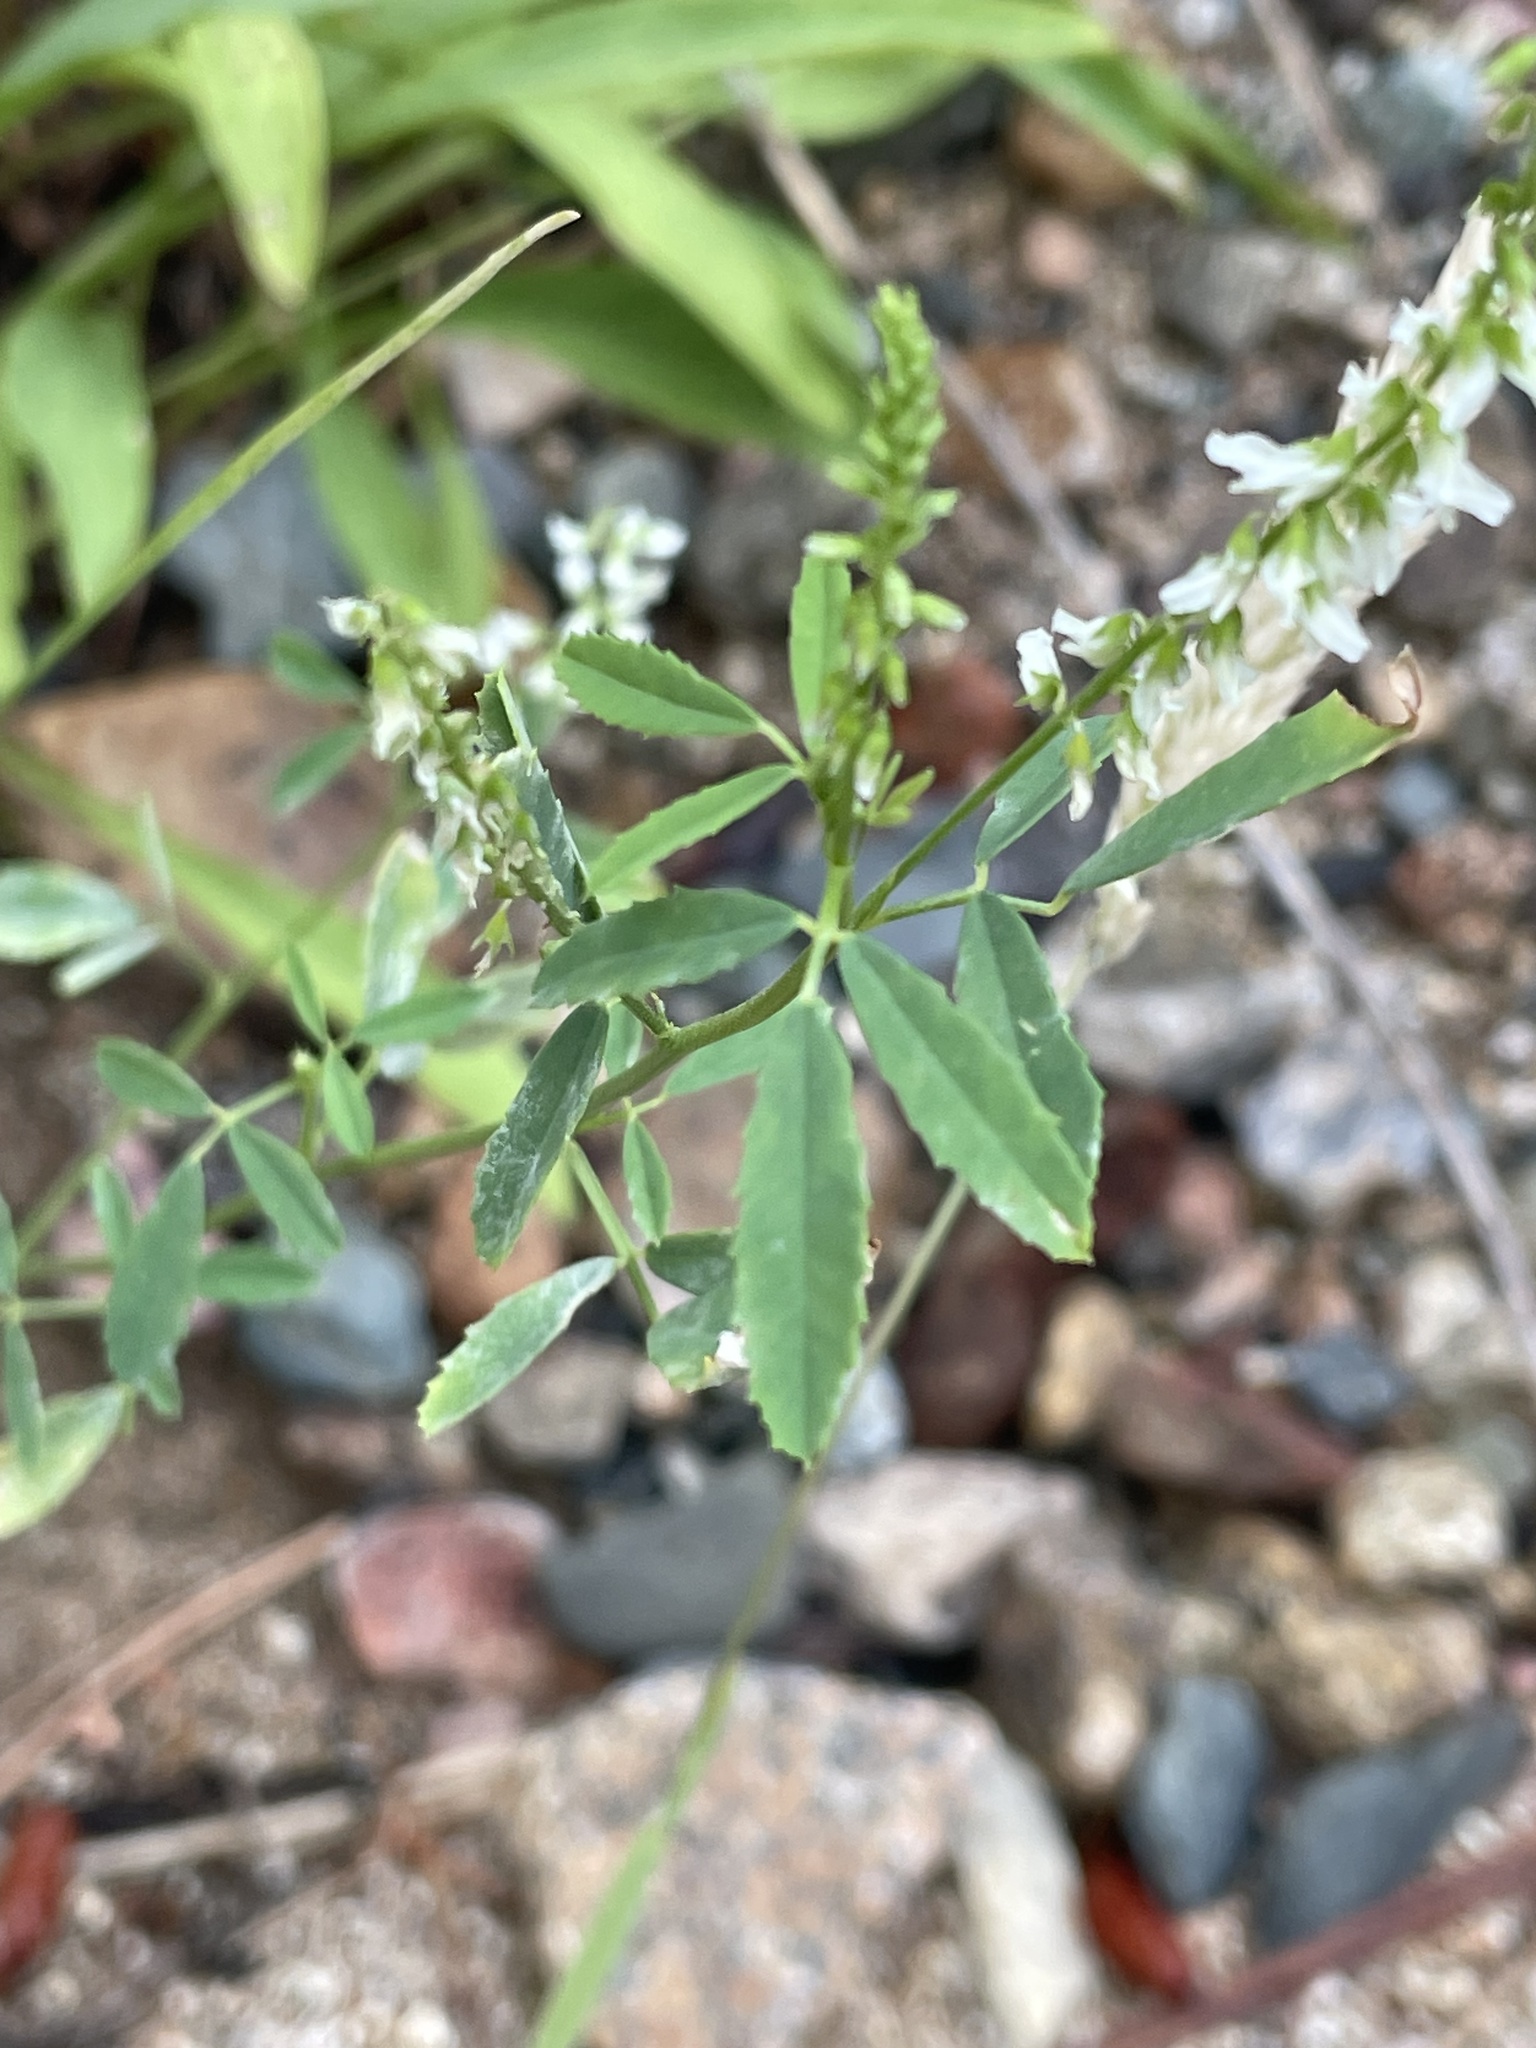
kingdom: Plantae
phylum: Tracheophyta
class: Magnoliopsida
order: Fabales
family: Fabaceae
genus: Melilotus
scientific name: Melilotus albus
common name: White melilot
